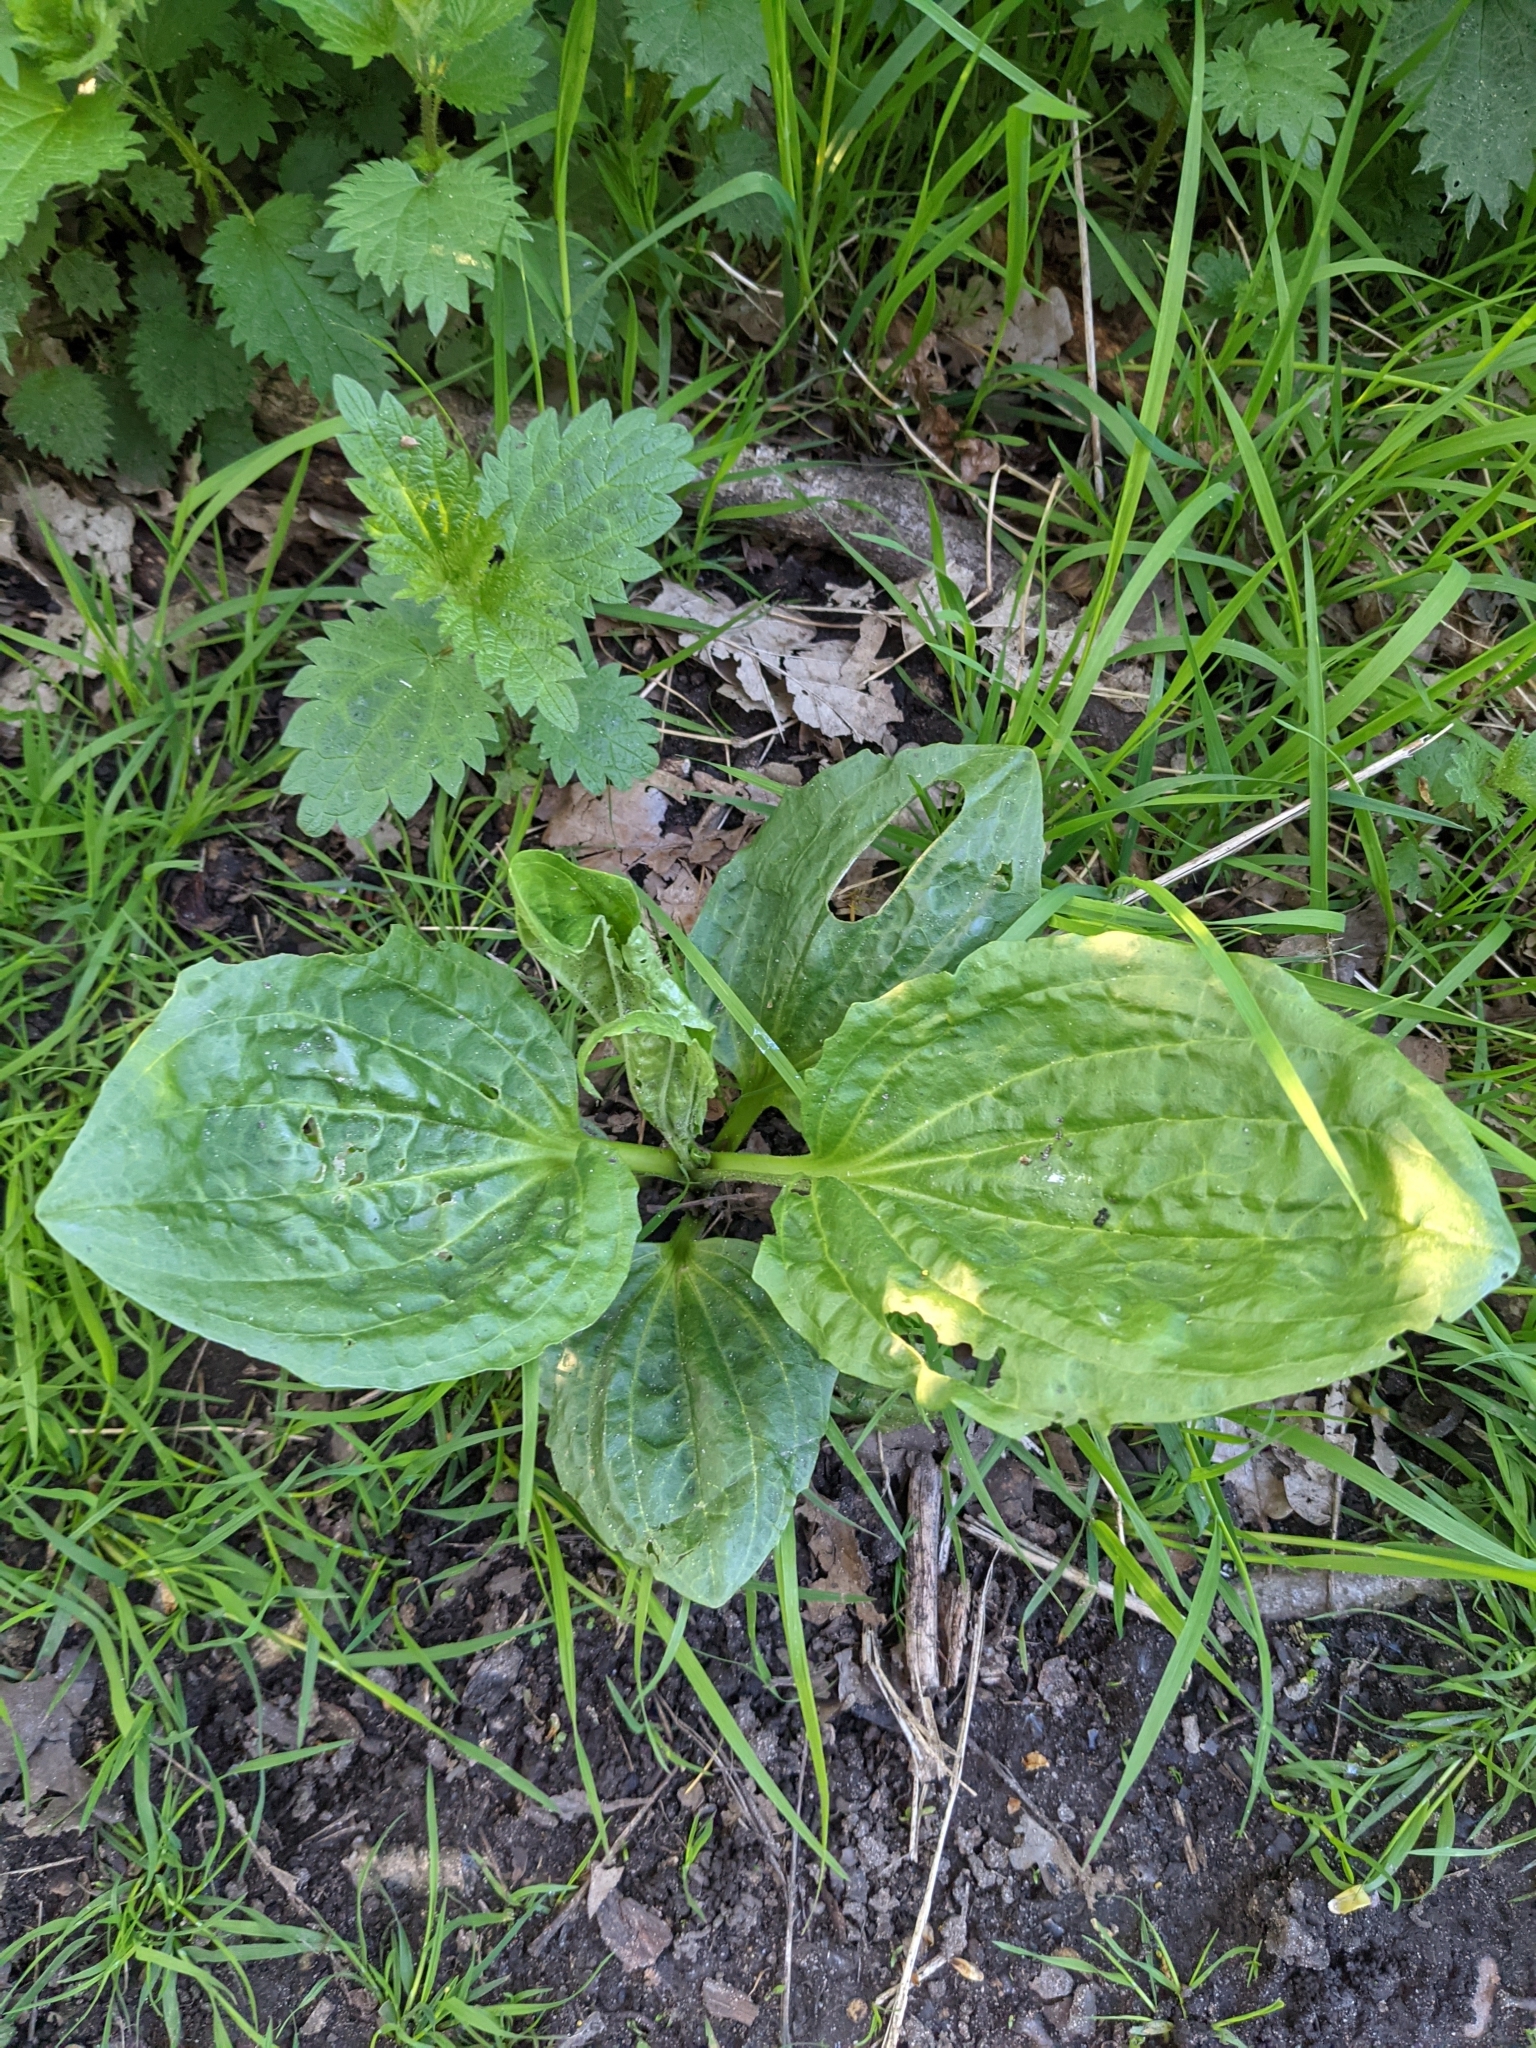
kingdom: Plantae
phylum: Tracheophyta
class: Magnoliopsida
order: Lamiales
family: Plantaginaceae
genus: Plantago
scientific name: Plantago major
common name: Common plantain
